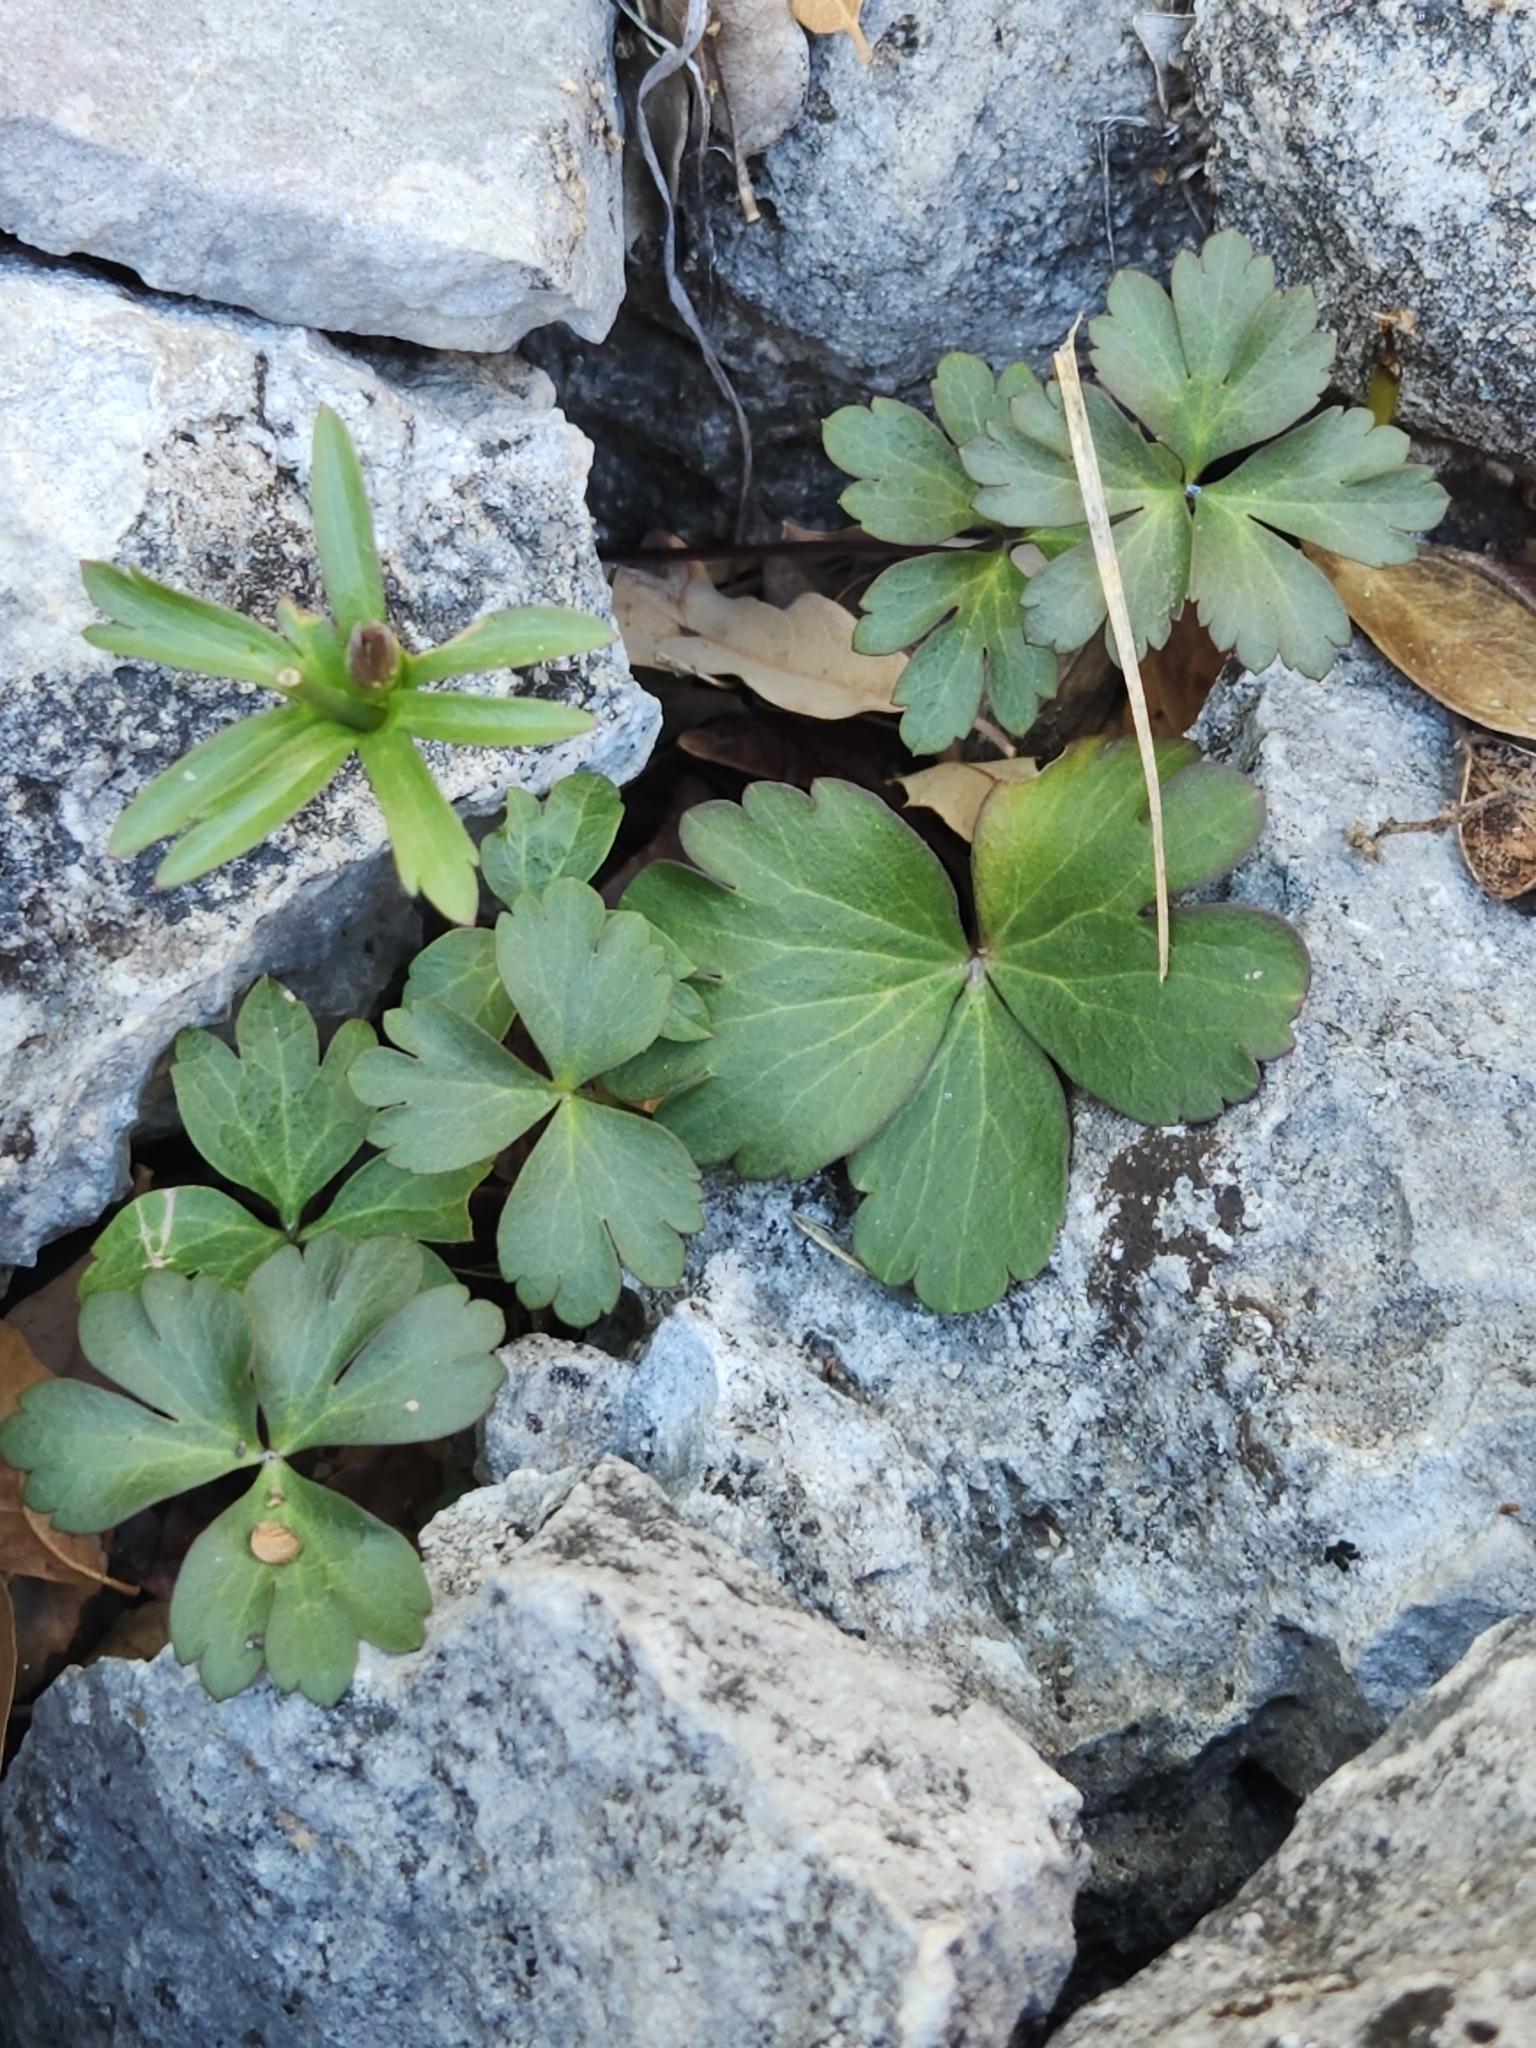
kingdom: Plantae
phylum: Tracheophyta
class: Magnoliopsida
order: Ranunculales
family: Ranunculaceae
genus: Anemone
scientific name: Anemone edwardsiana
